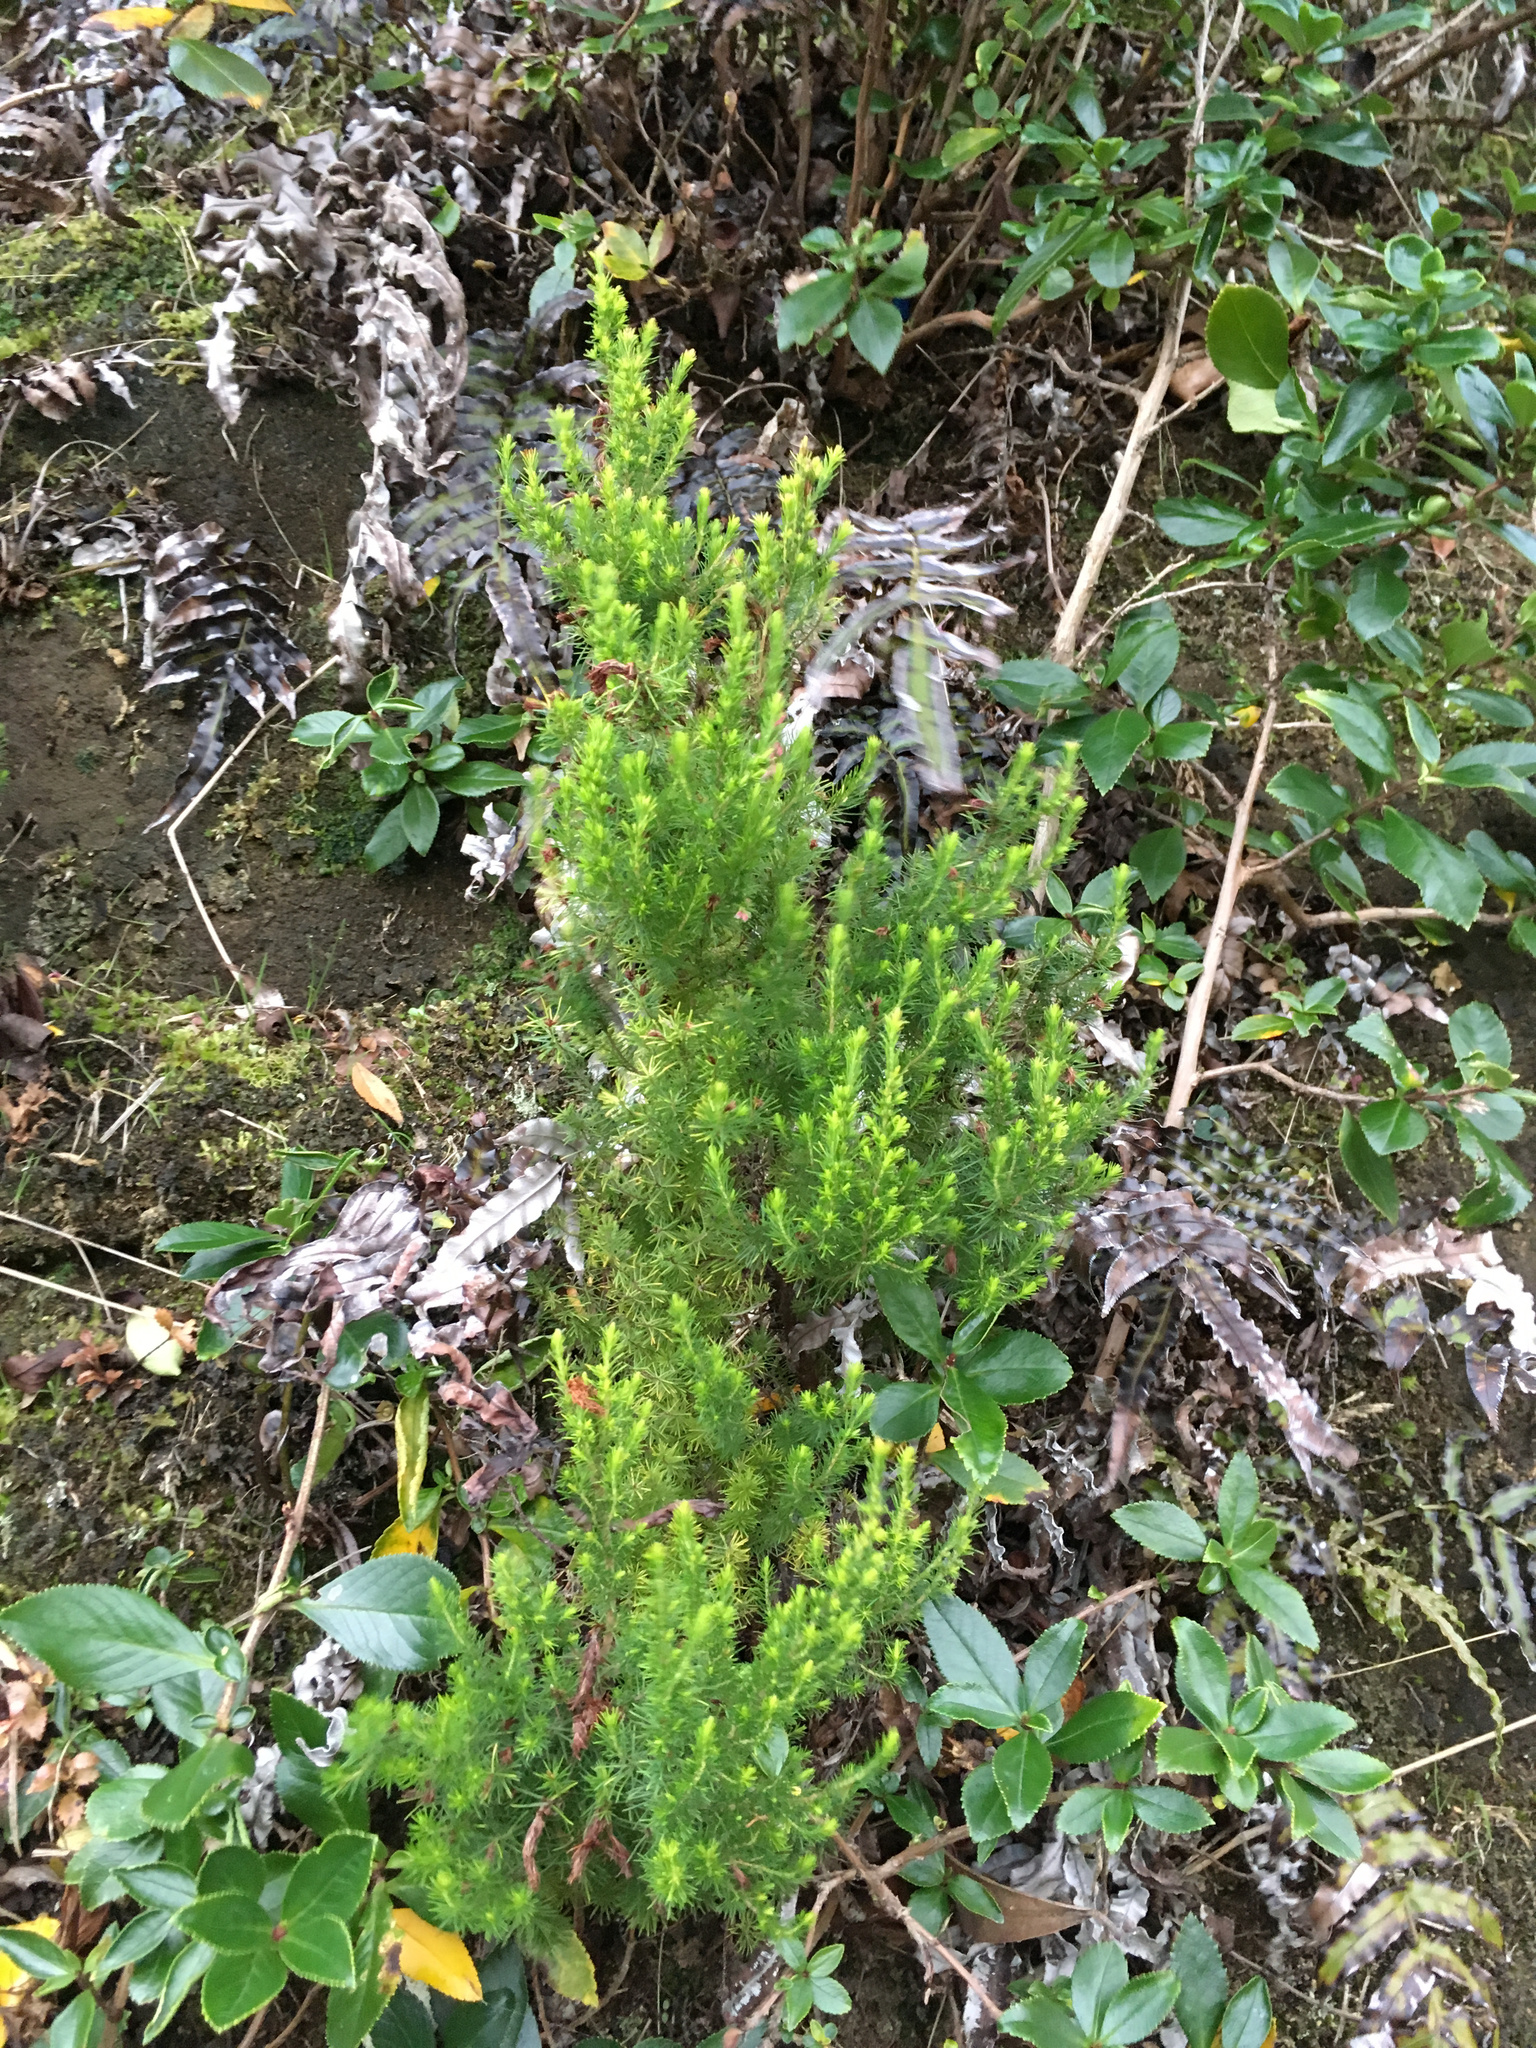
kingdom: Plantae
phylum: Tracheophyta
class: Magnoliopsida
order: Ericales
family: Ericaceae
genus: Erica
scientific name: Erica lusitanica
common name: Spanish heath
